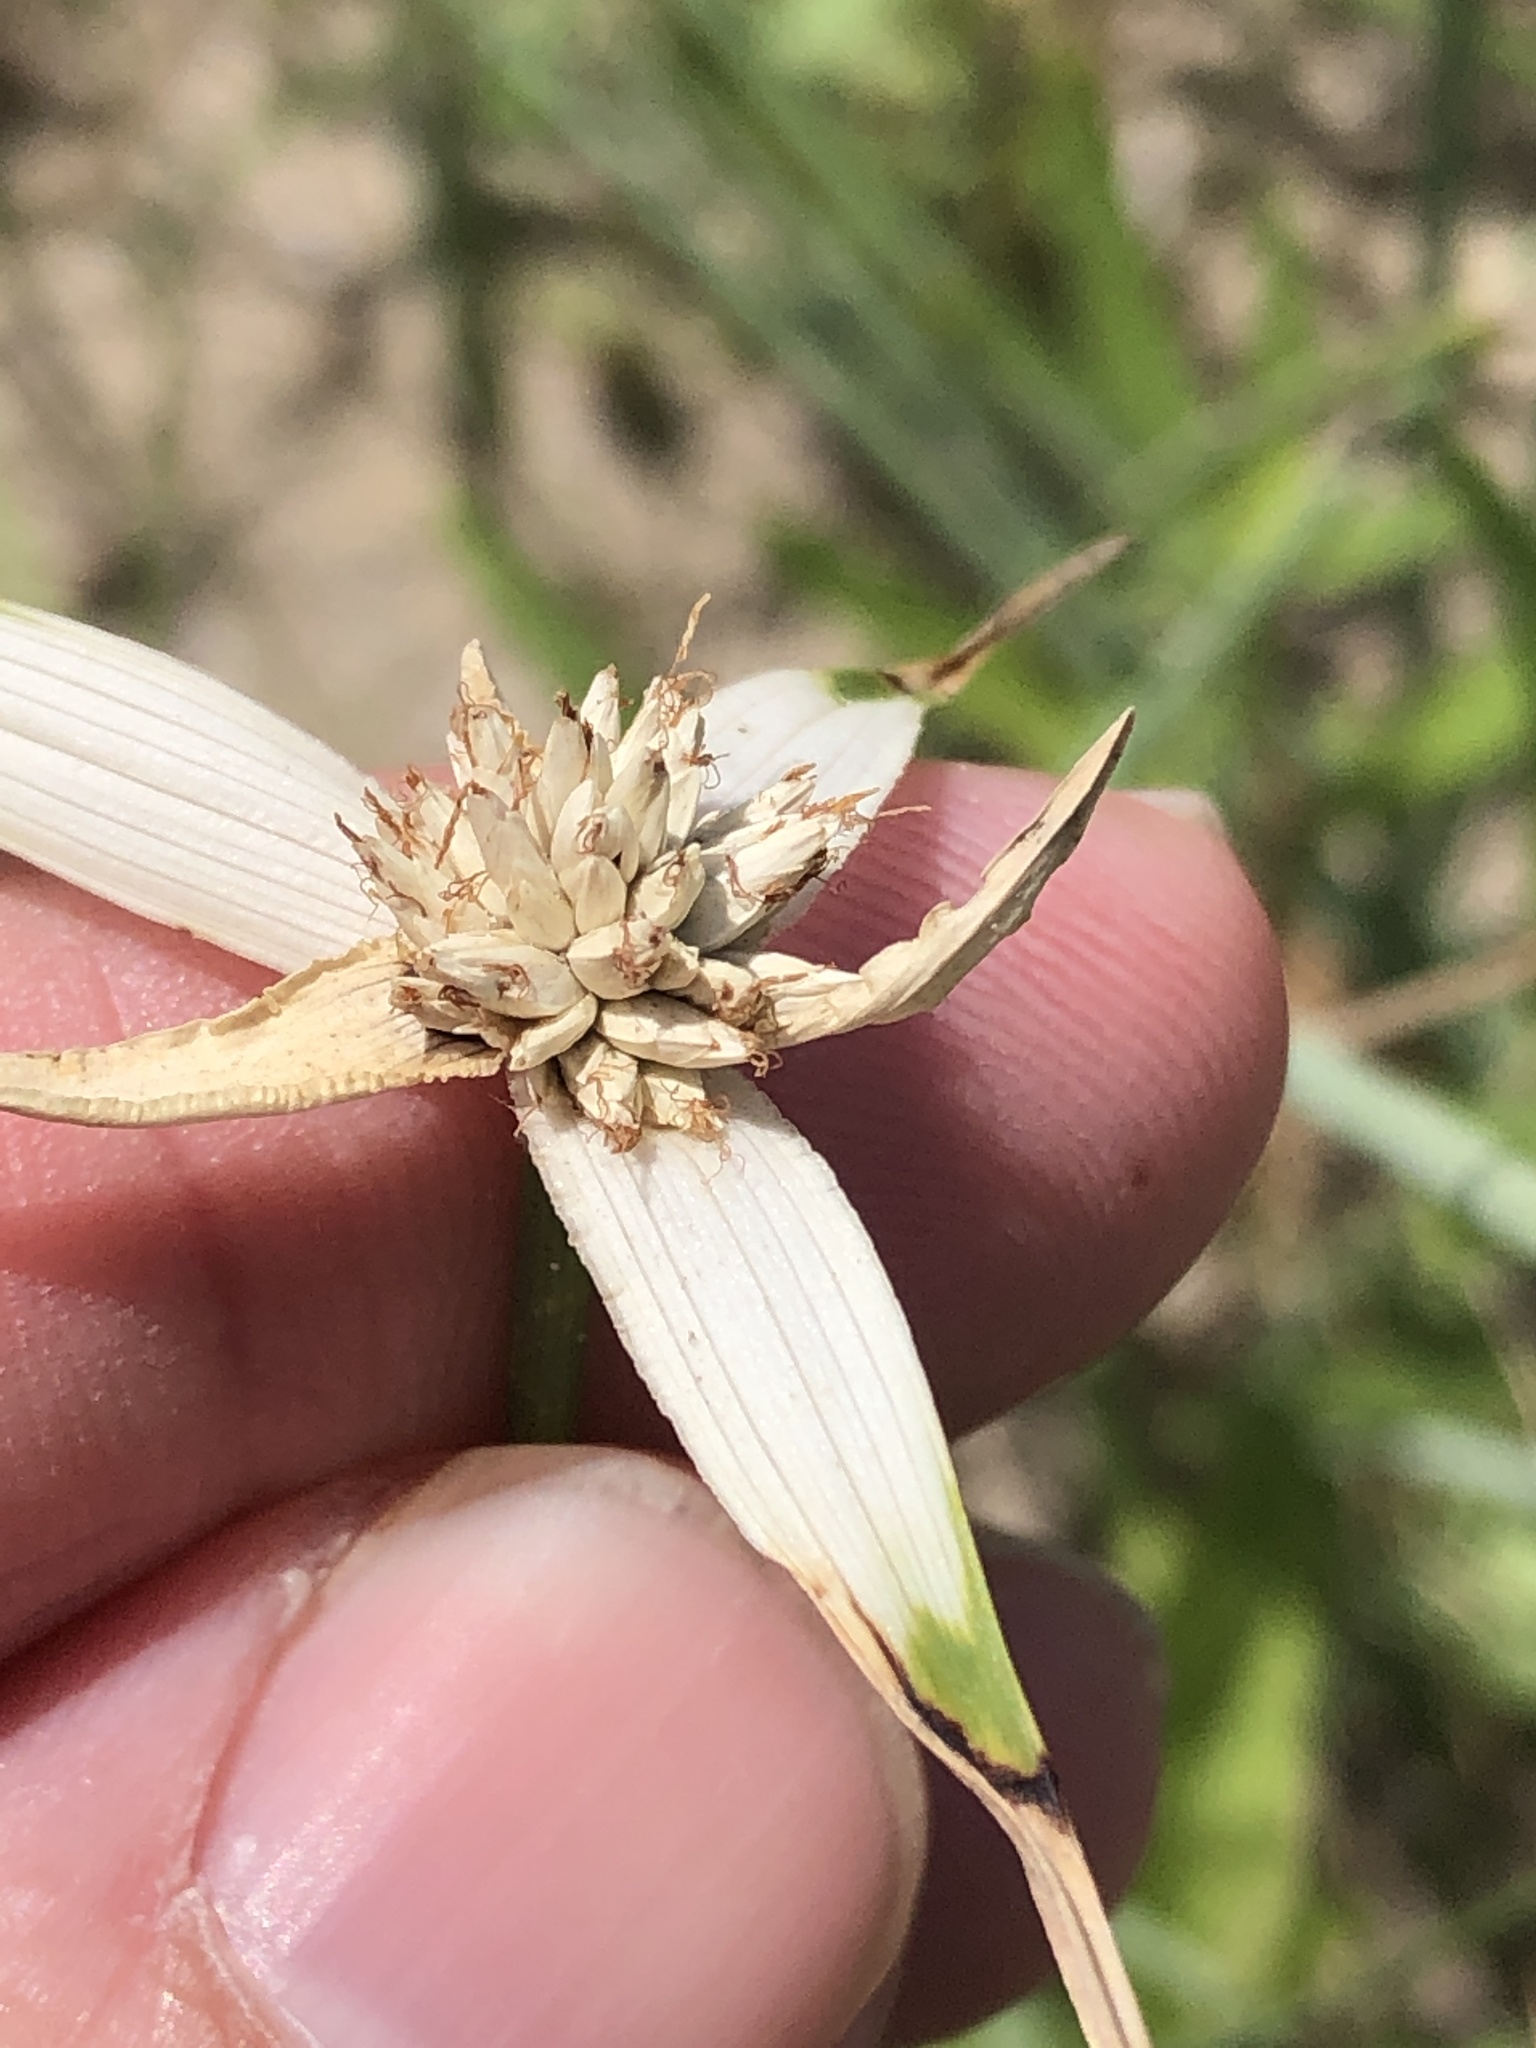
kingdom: Plantae
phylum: Tracheophyta
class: Liliopsida
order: Poales
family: Cyperaceae
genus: Rhynchospora
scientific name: Rhynchospora colorata
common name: Star sedge
